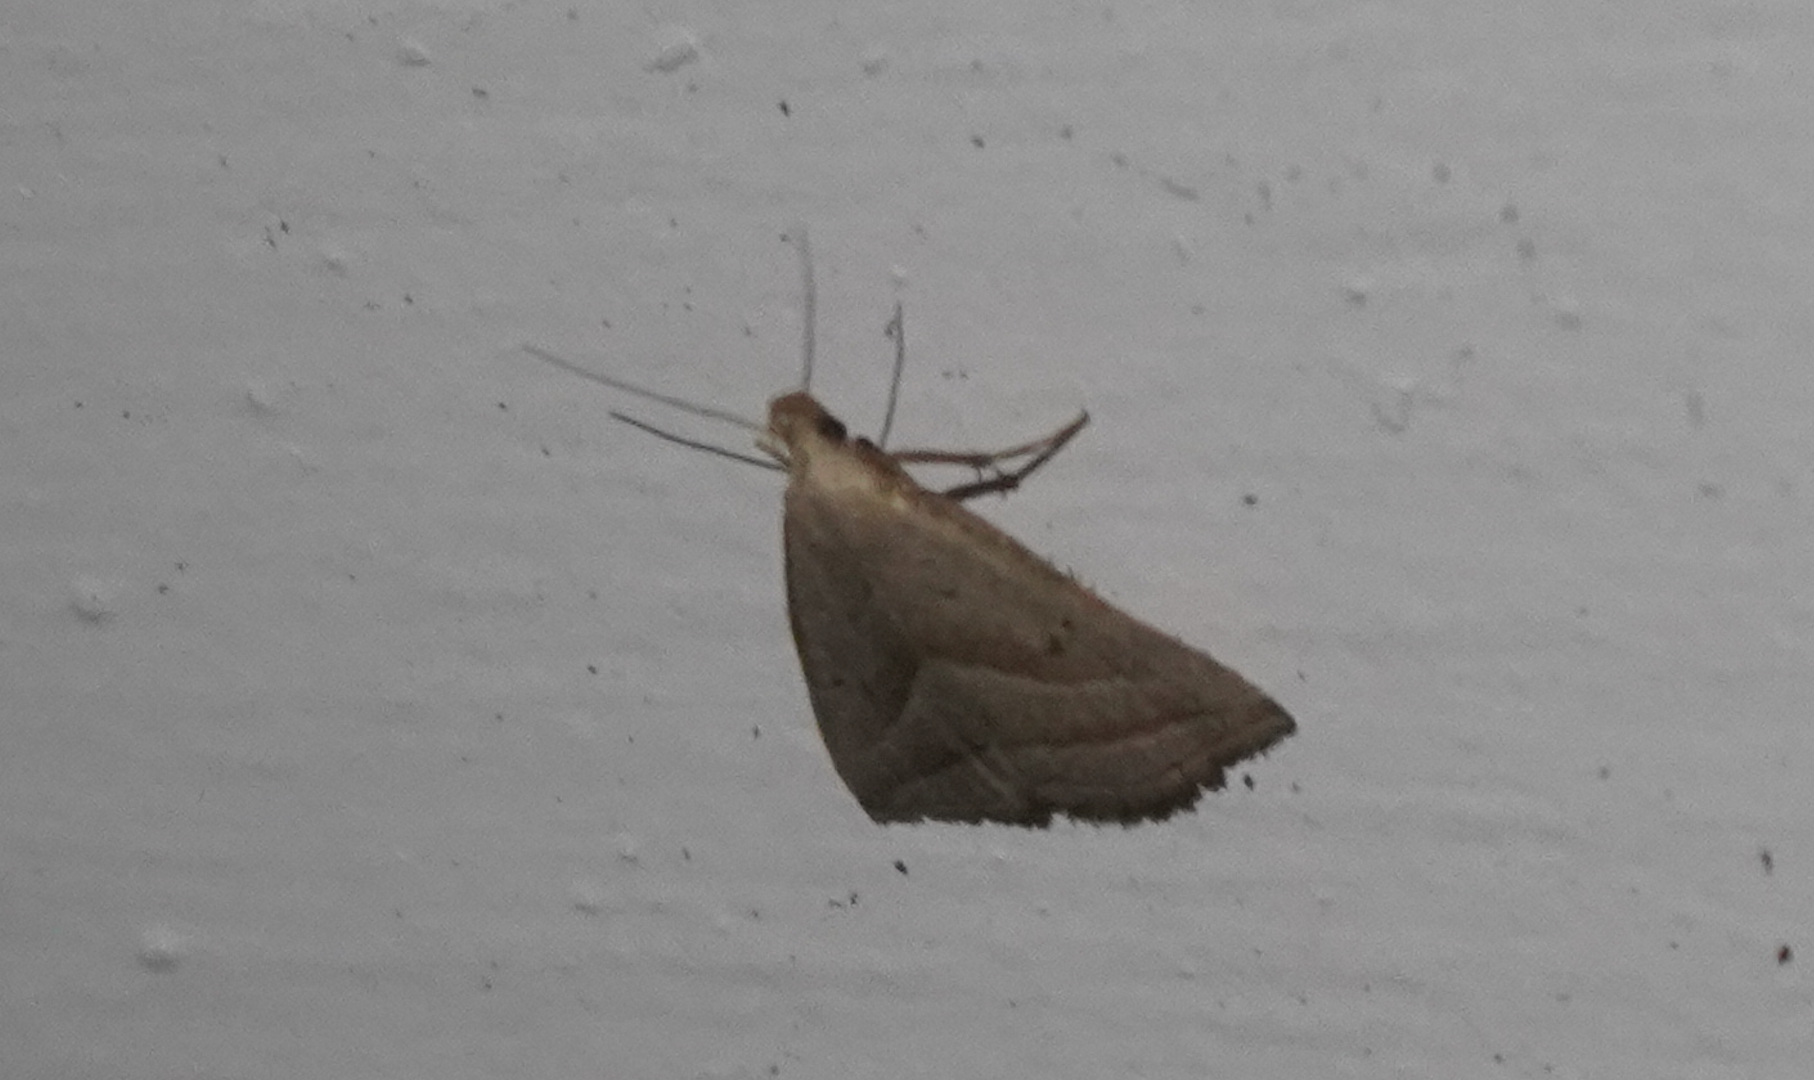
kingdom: Animalia
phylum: Arthropoda
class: Insecta
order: Lepidoptera
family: Erebidae
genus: Macrochilo
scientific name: Macrochilo absorptalis
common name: Slant-lined owlet
